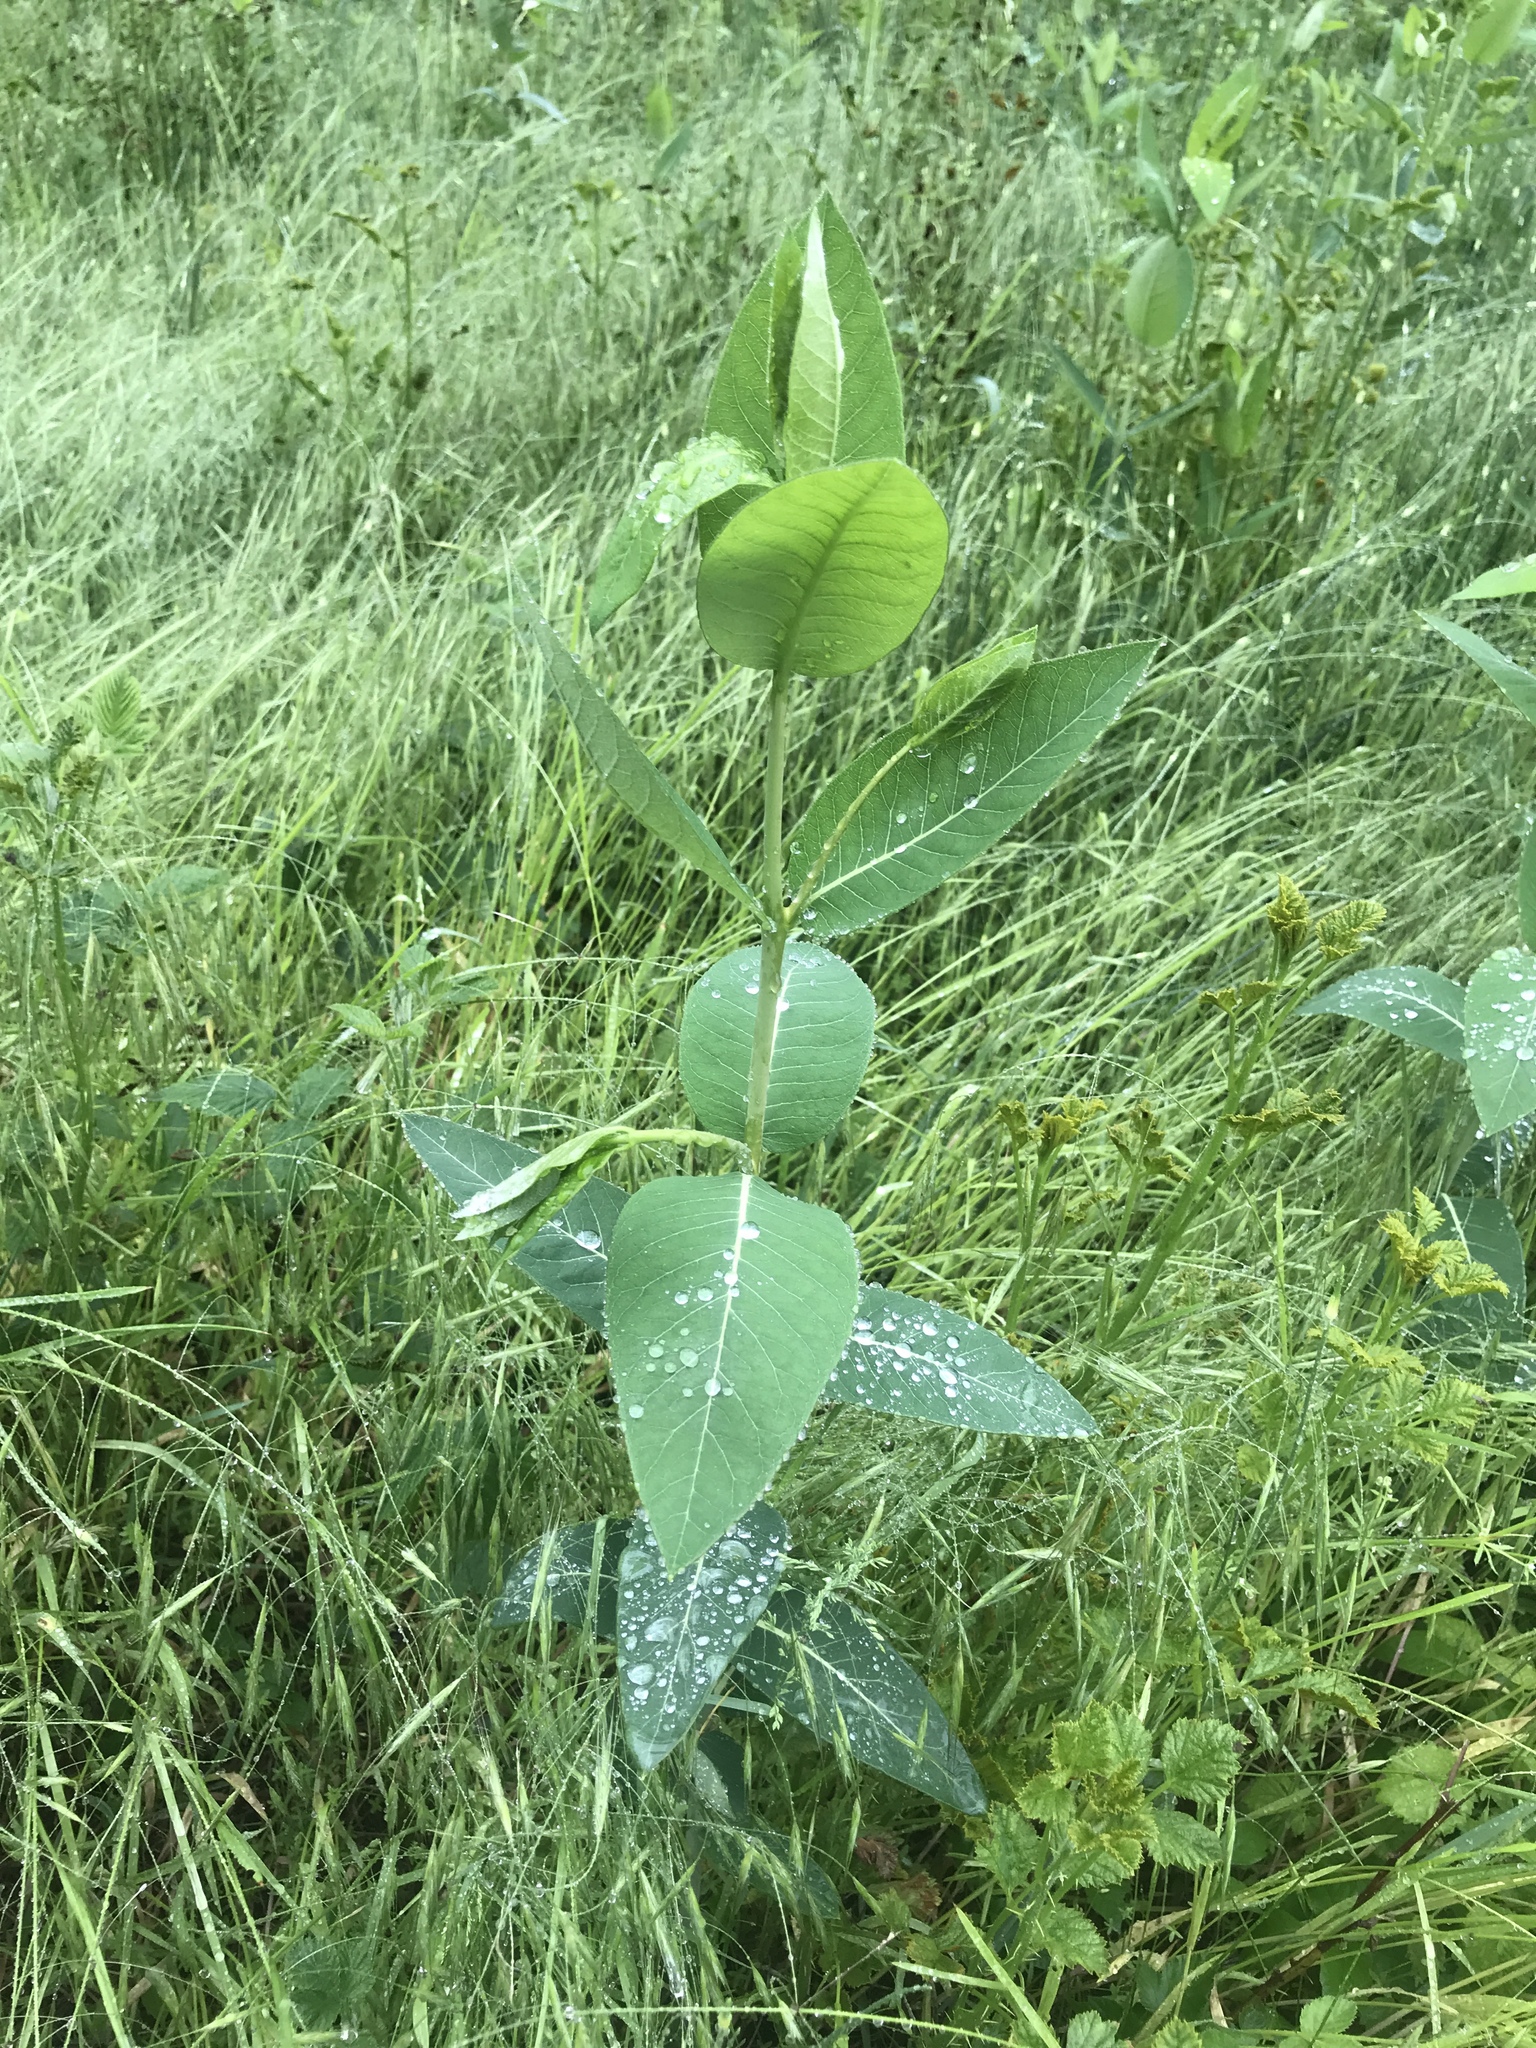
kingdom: Plantae
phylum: Tracheophyta
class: Magnoliopsida
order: Gentianales
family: Apocynaceae
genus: Apocynum
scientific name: Apocynum cannabinum
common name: Hemp dogbane
